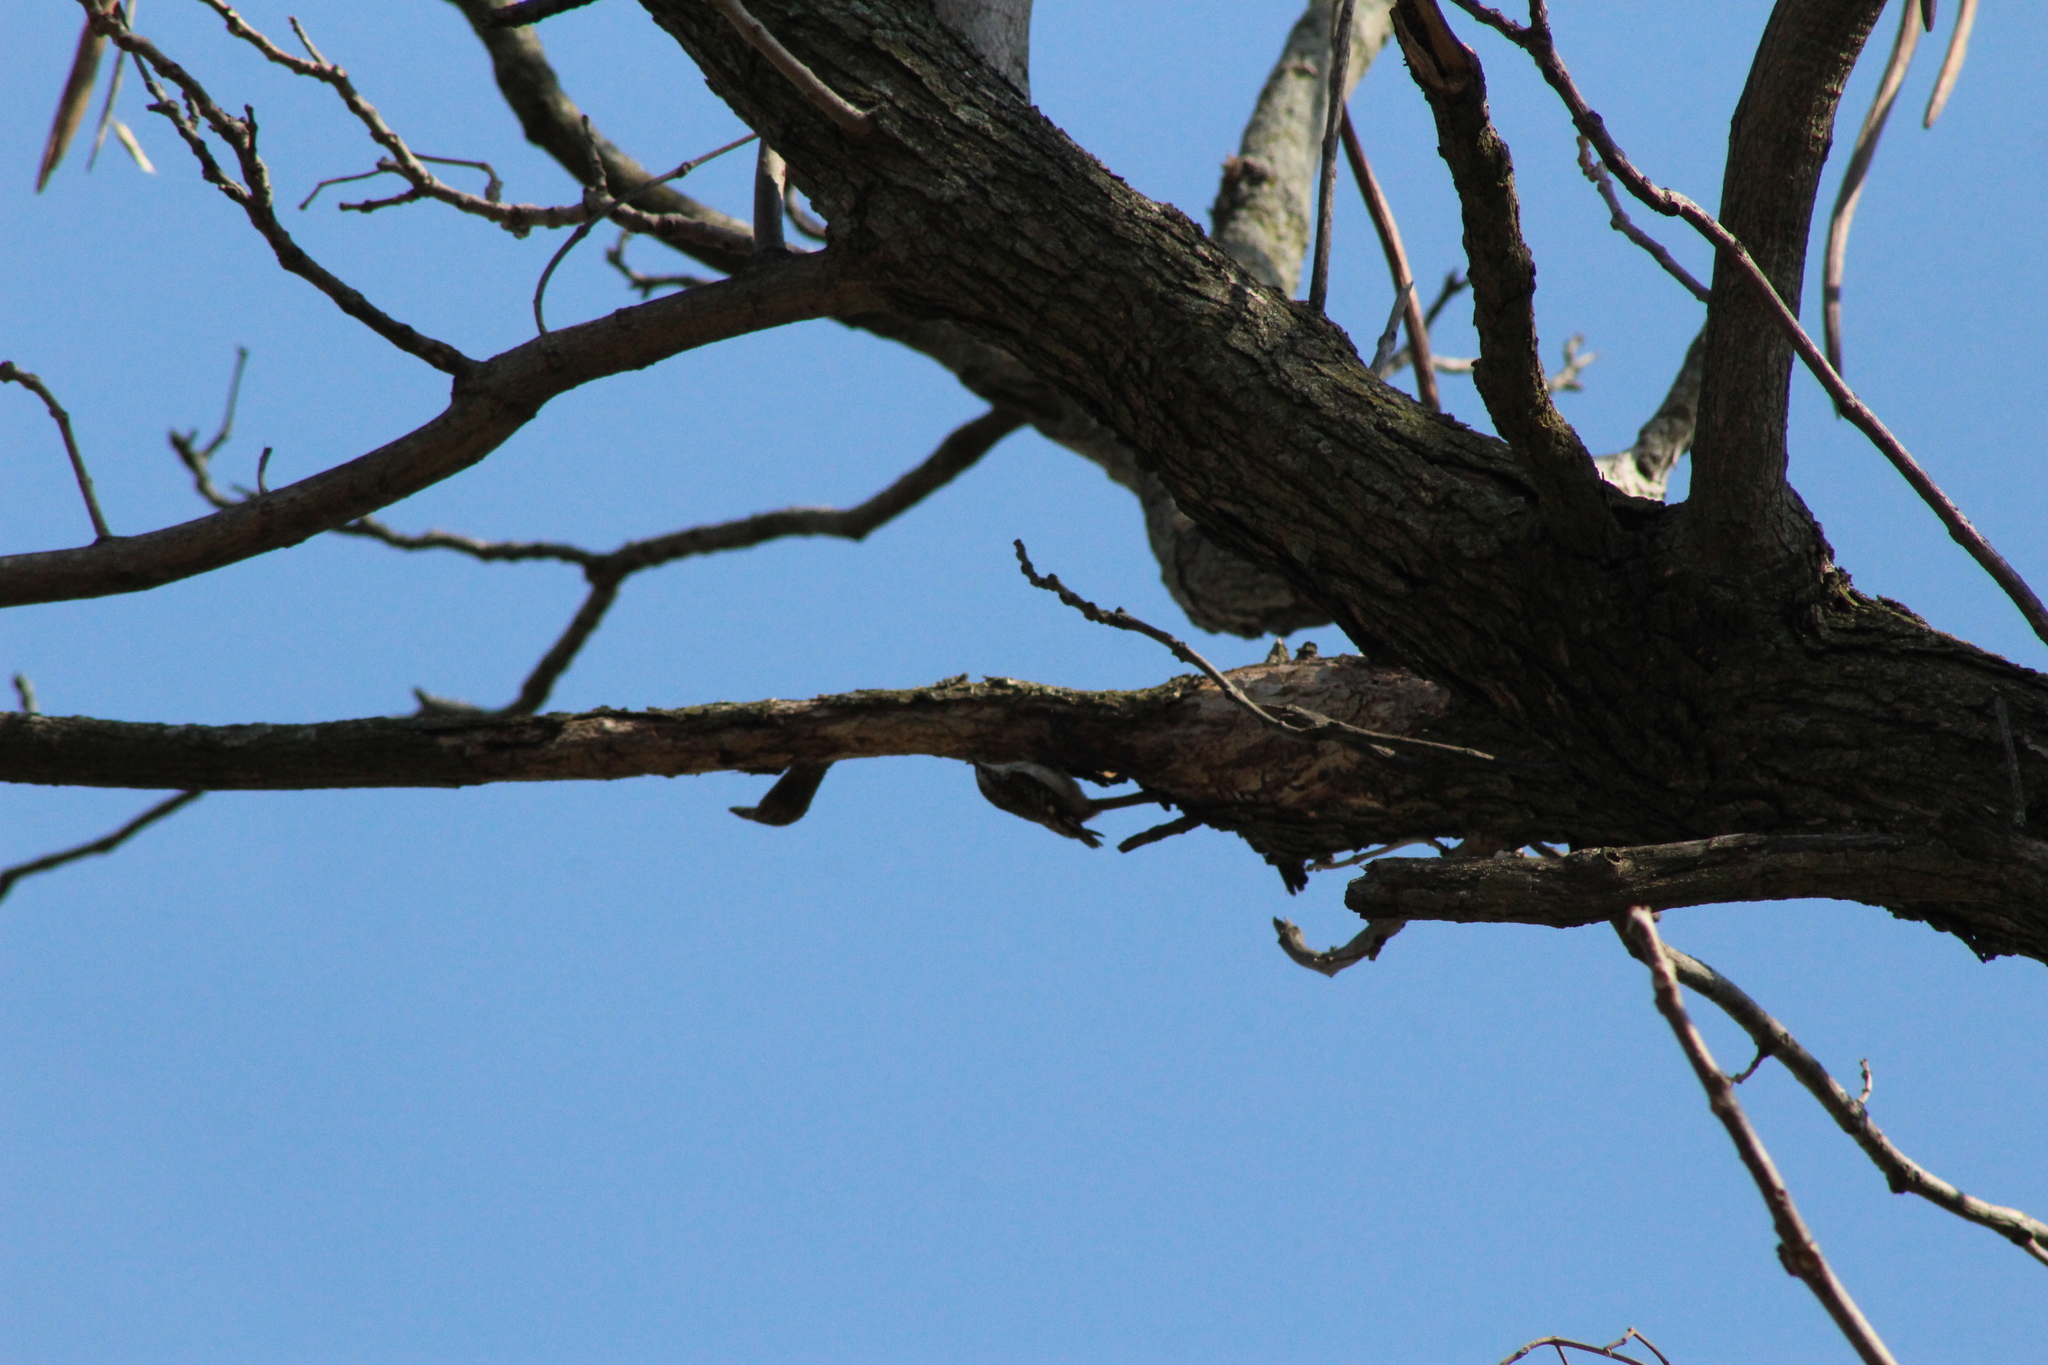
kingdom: Animalia
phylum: Chordata
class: Aves
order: Passeriformes
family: Certhiidae
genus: Certhia
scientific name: Certhia americana
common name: Brown creeper
